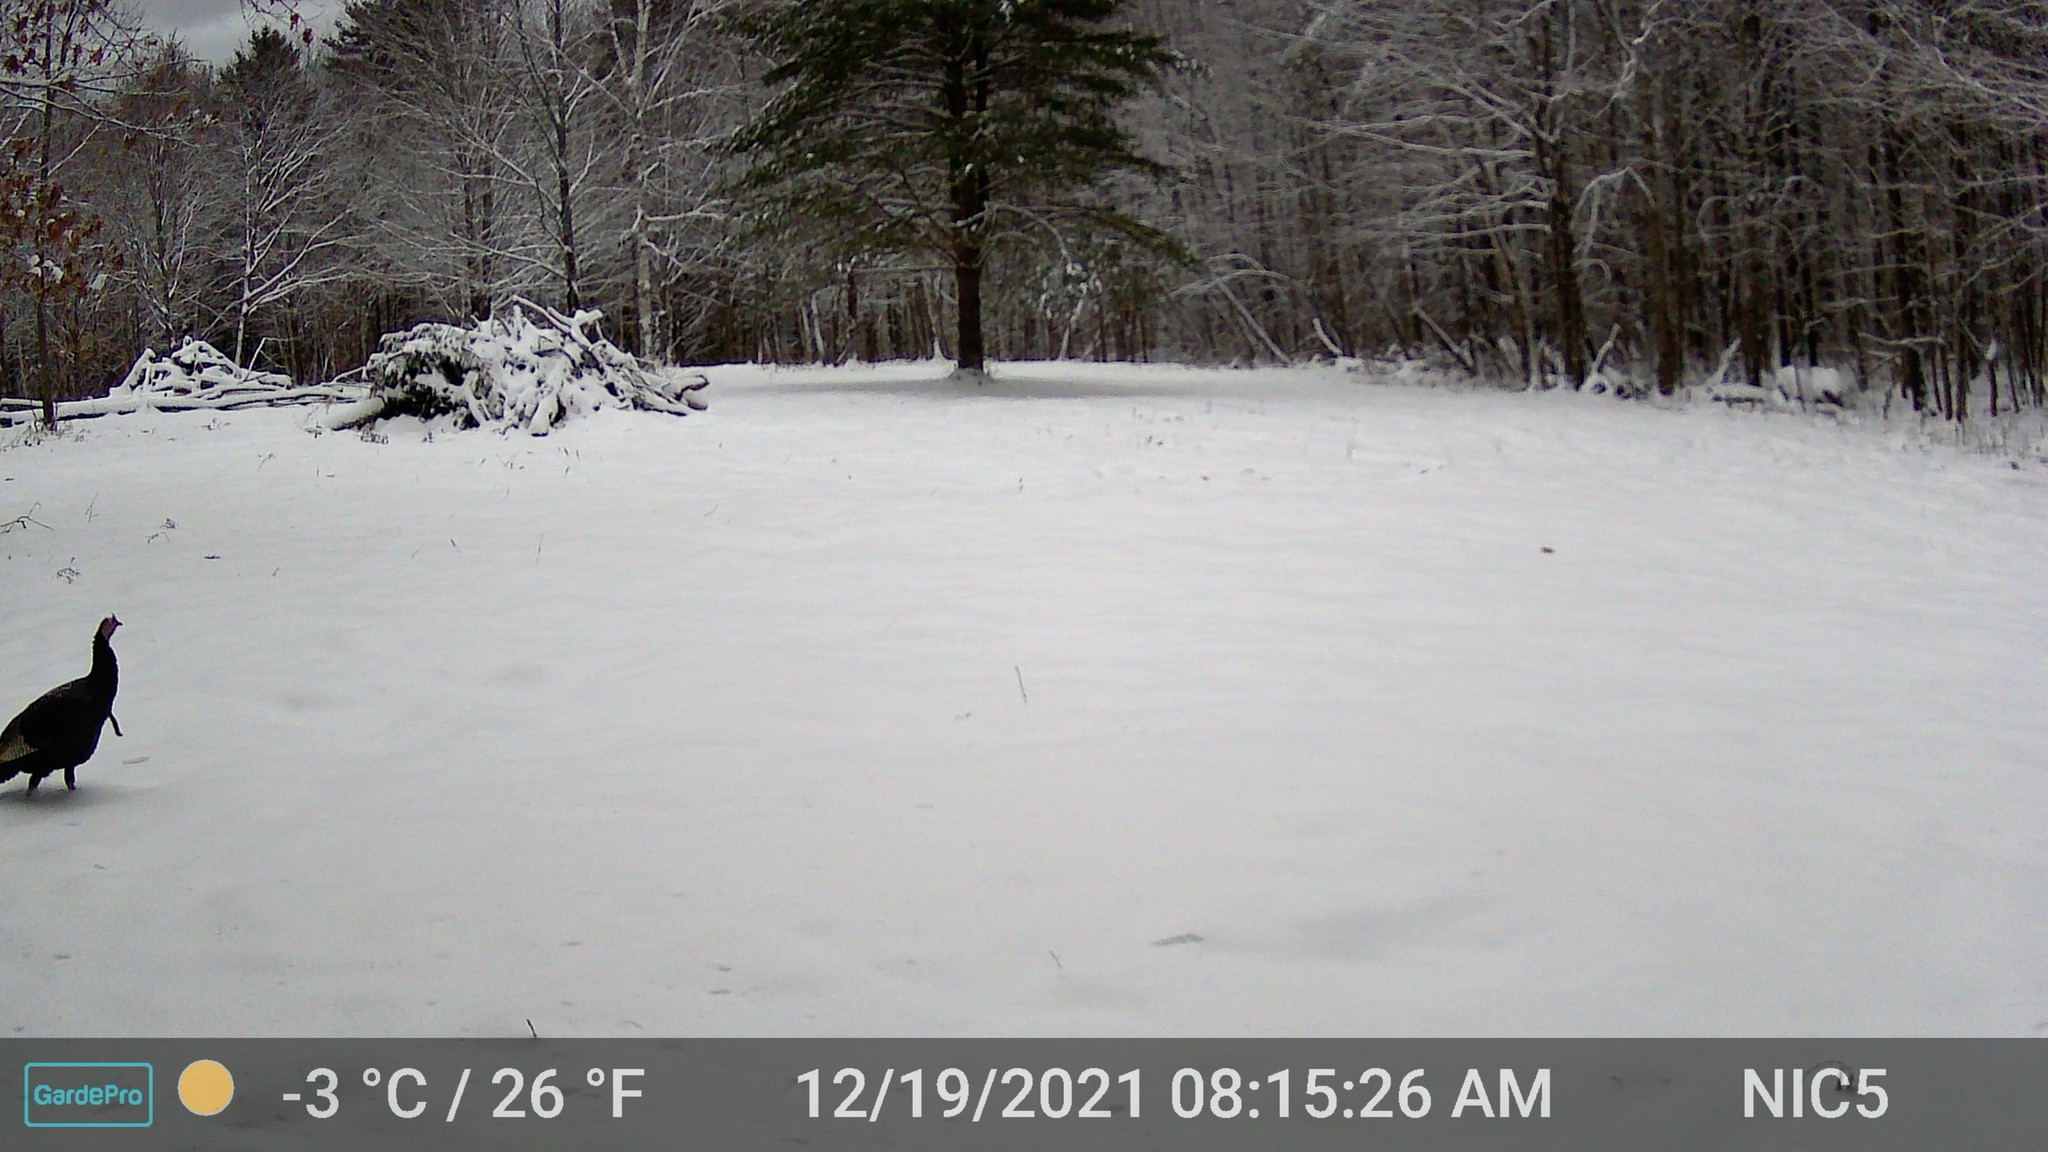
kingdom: Animalia
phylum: Chordata
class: Aves
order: Galliformes
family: Phasianidae
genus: Meleagris
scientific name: Meleagris gallopavo
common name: Wild turkey
